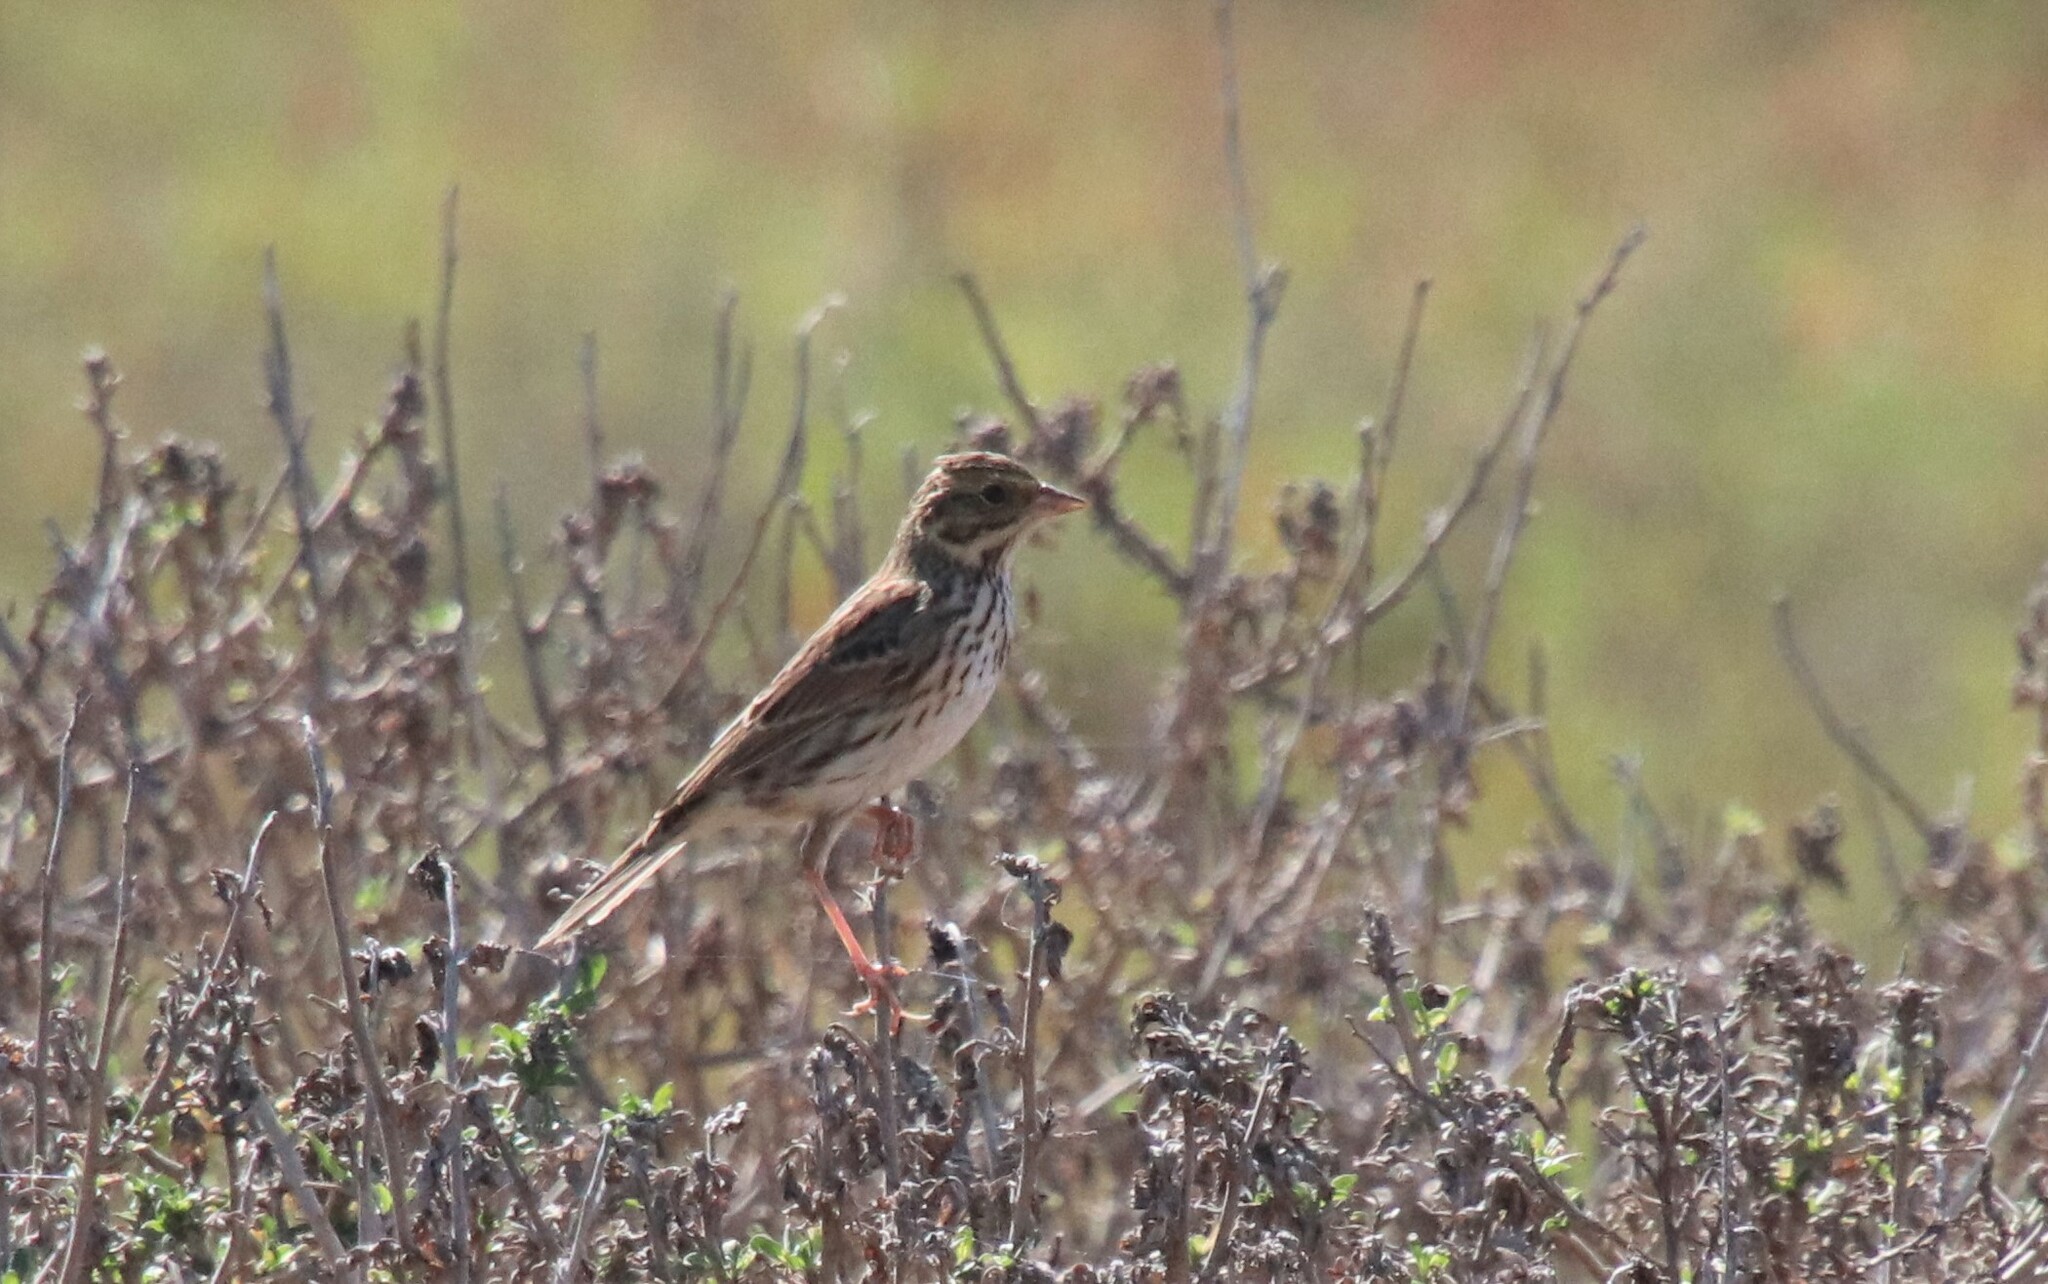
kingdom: Animalia
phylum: Chordata
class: Aves
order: Passeriformes
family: Passerellidae
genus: Passerculus
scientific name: Passerculus sandwichensis
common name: Savannah sparrow
